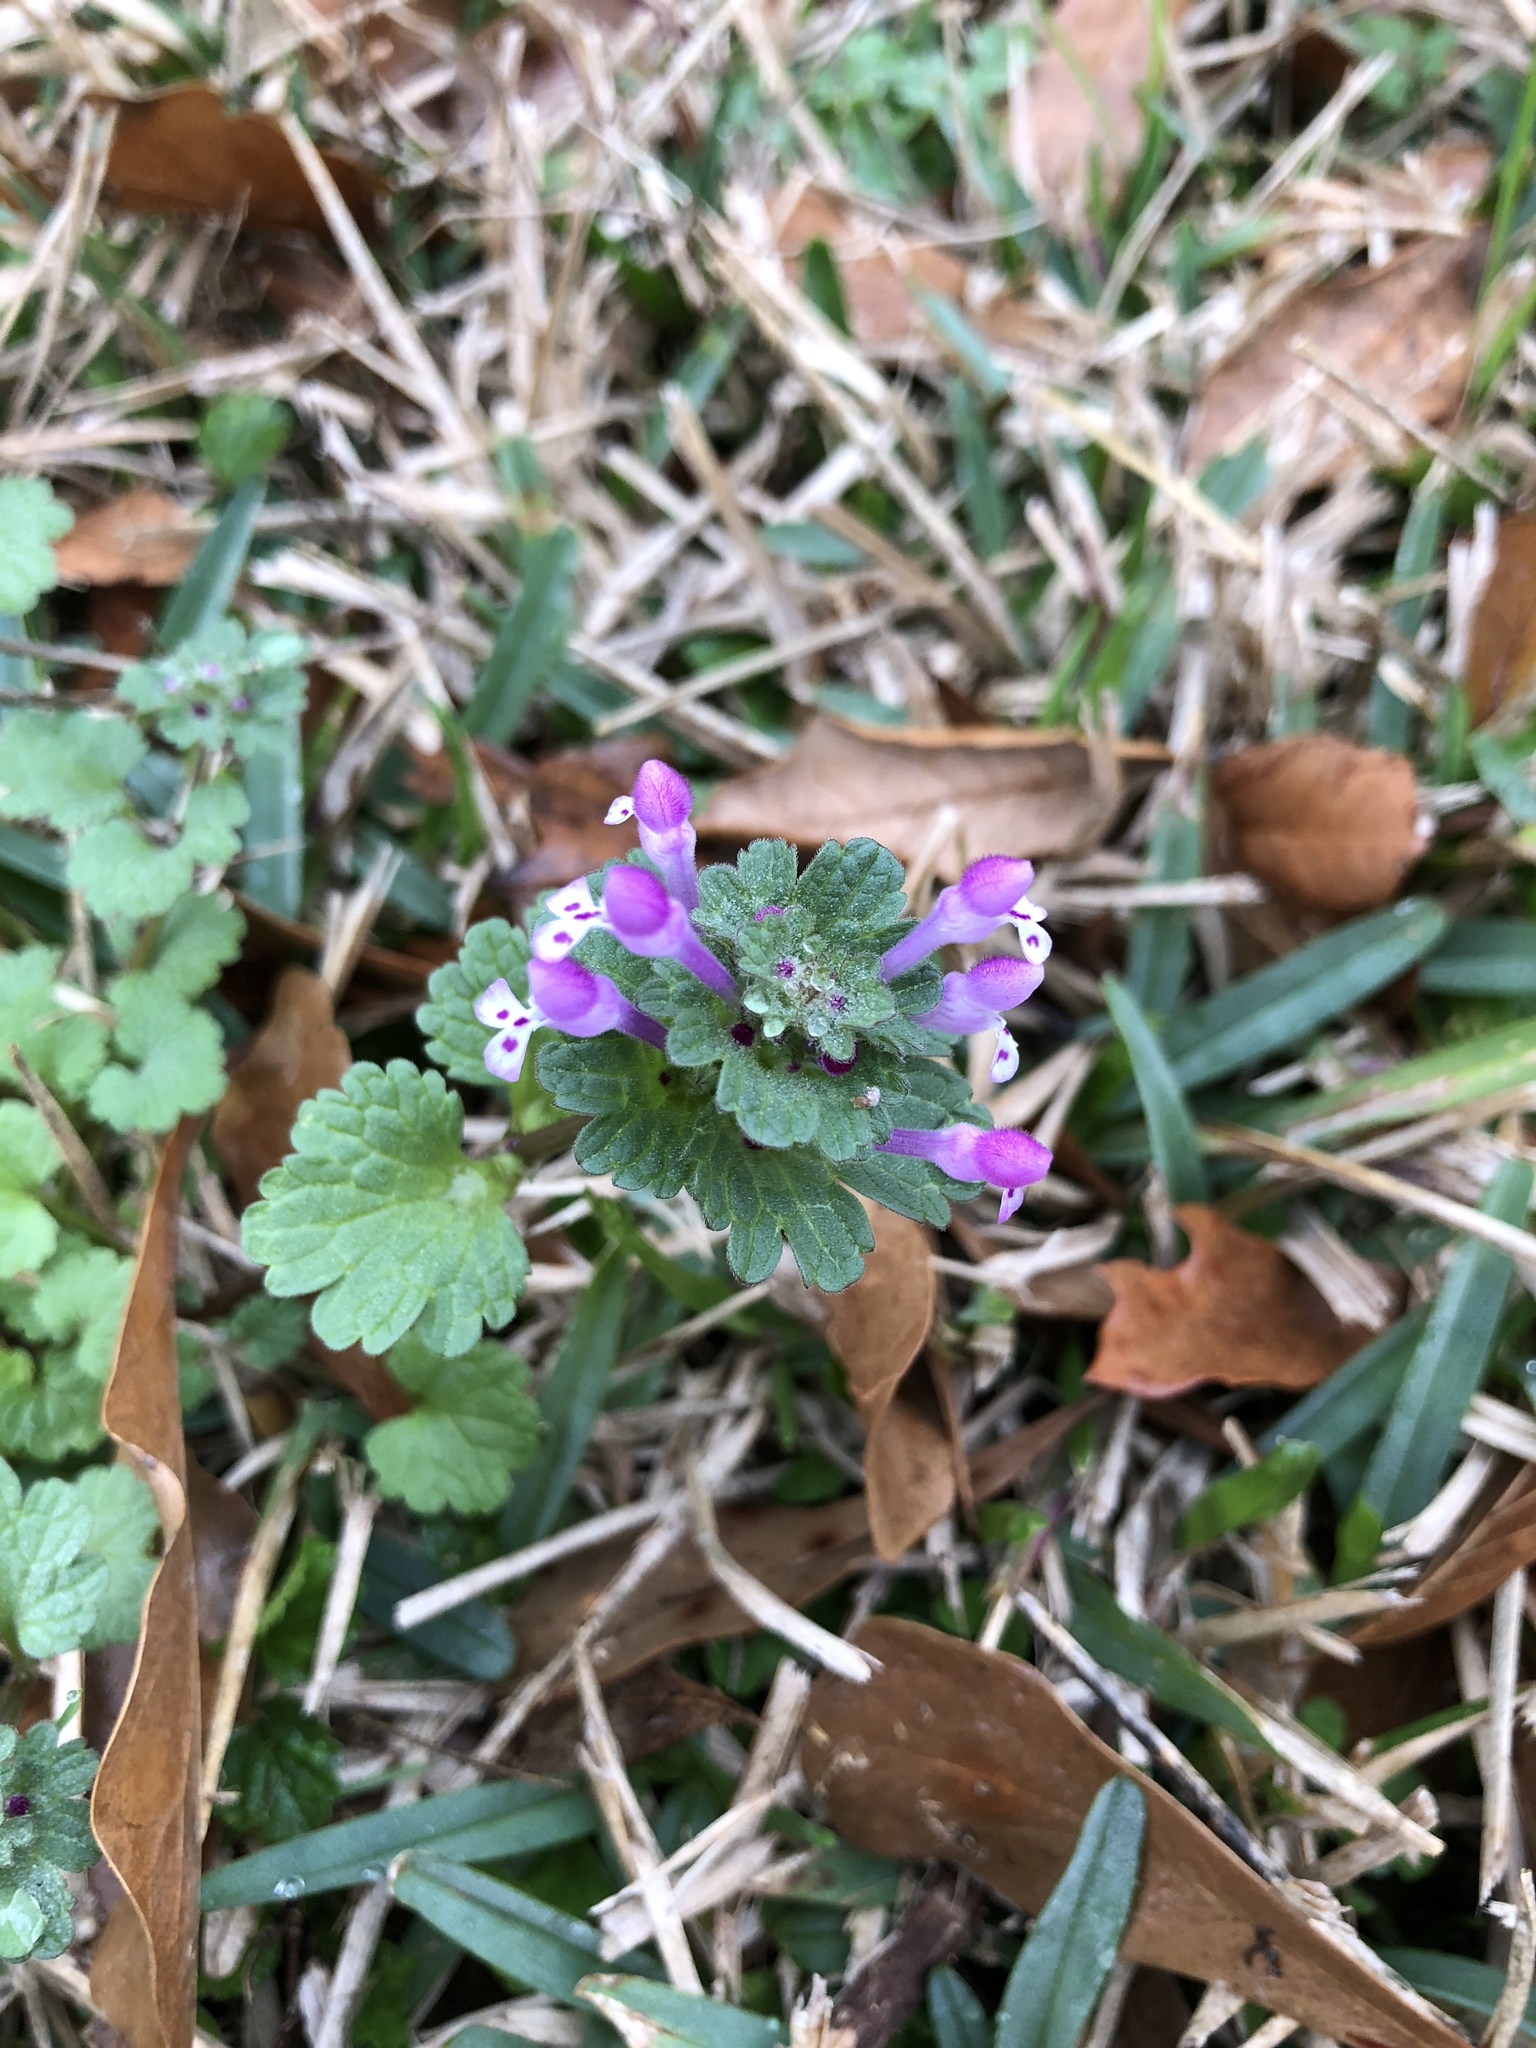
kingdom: Plantae
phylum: Tracheophyta
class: Magnoliopsida
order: Lamiales
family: Lamiaceae
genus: Lamium
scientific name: Lamium amplexicaule
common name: Henbit dead-nettle
